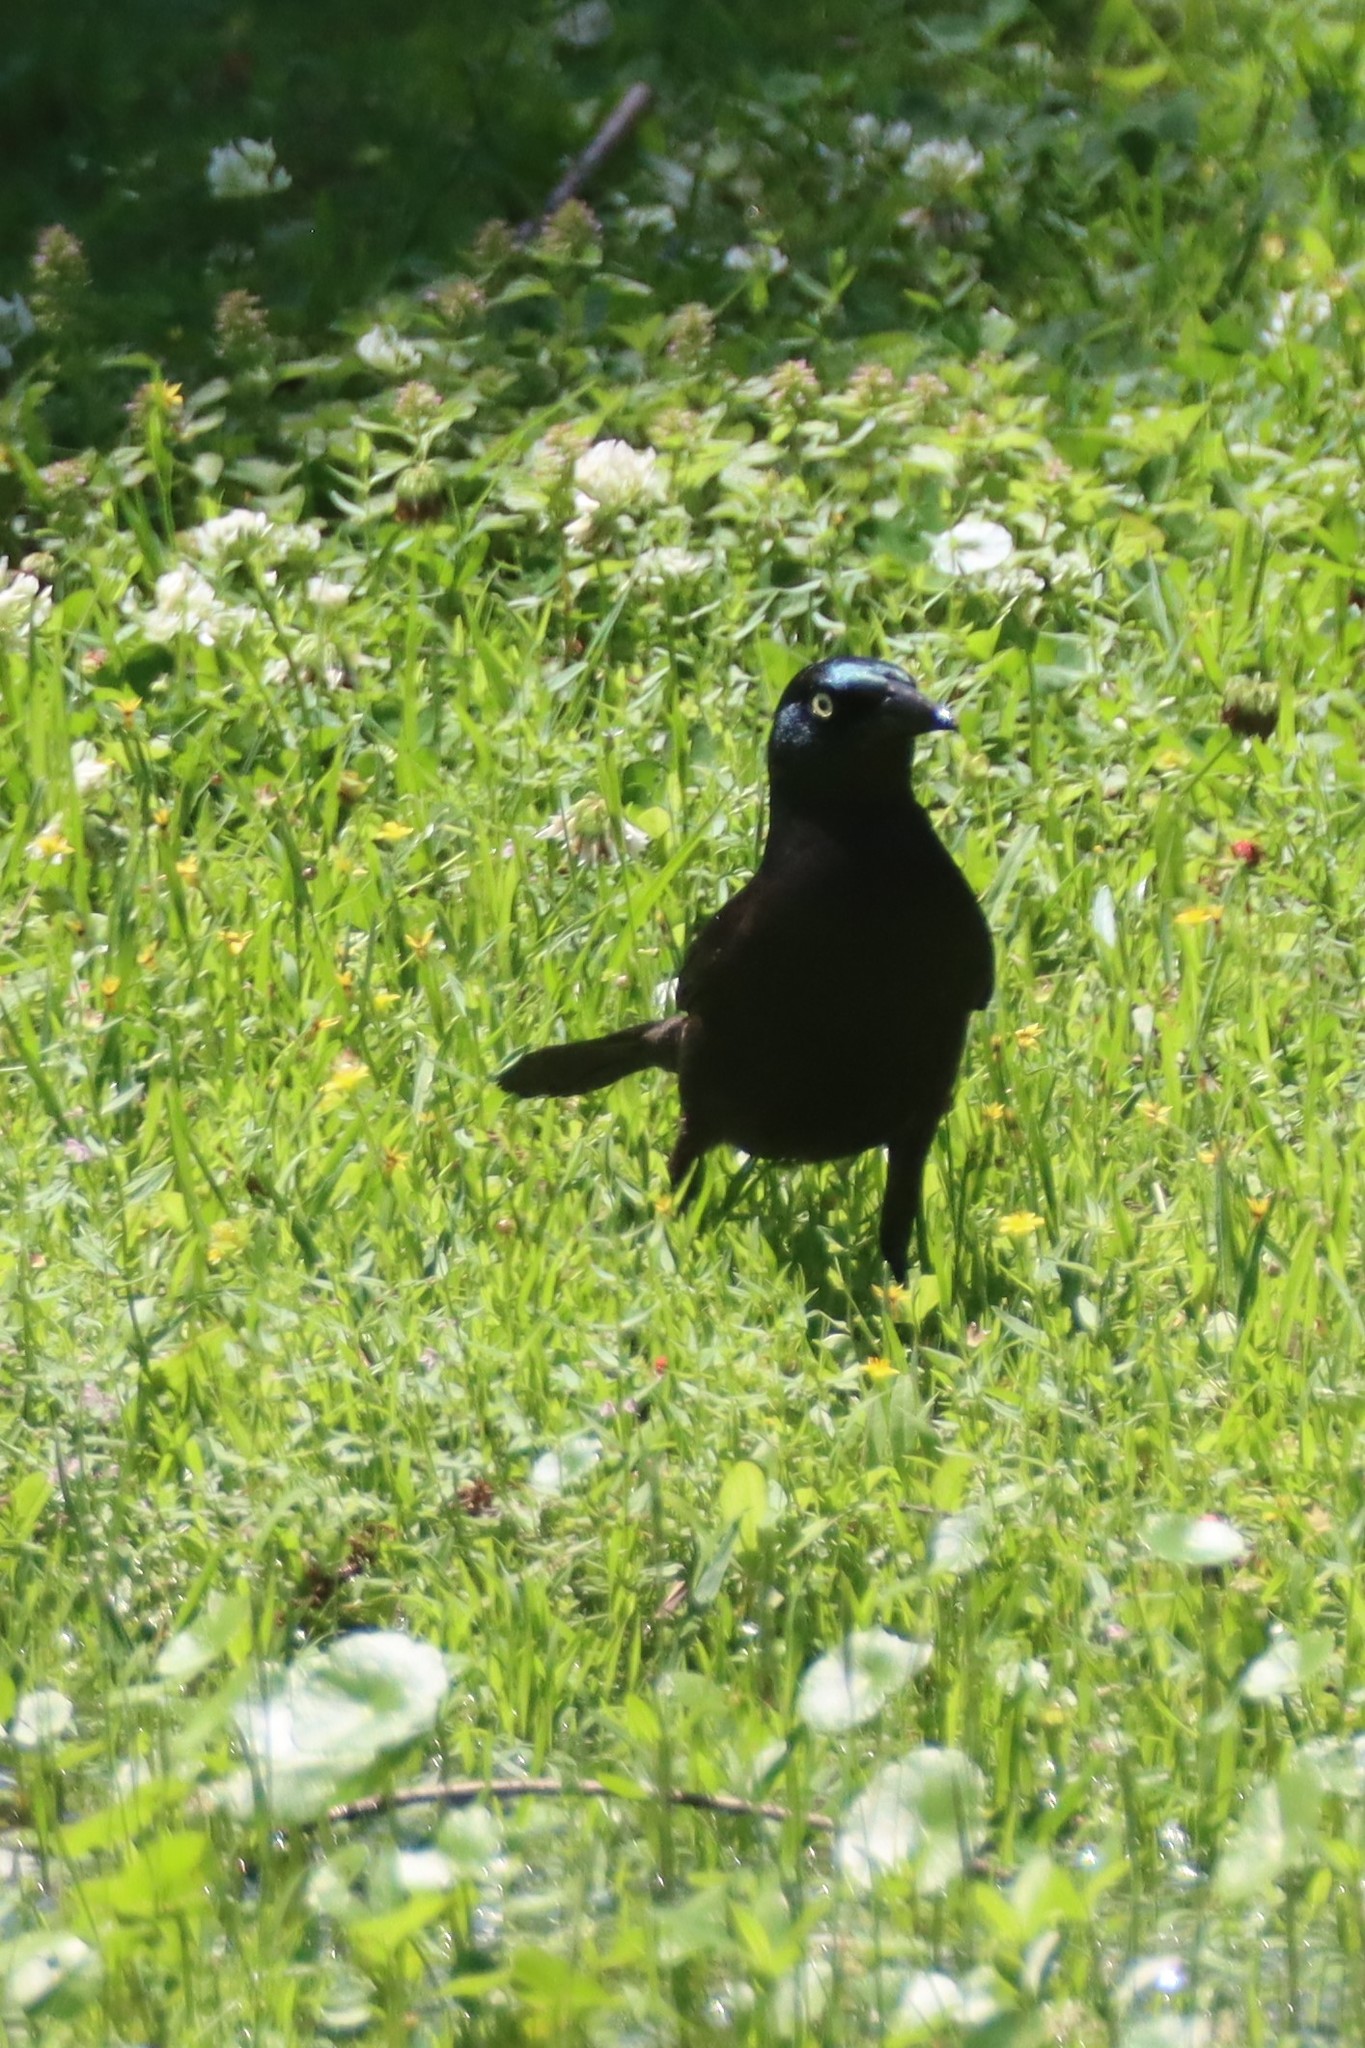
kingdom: Animalia
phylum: Chordata
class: Aves
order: Passeriformes
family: Icteridae
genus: Quiscalus
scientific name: Quiscalus quiscula
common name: Common grackle
